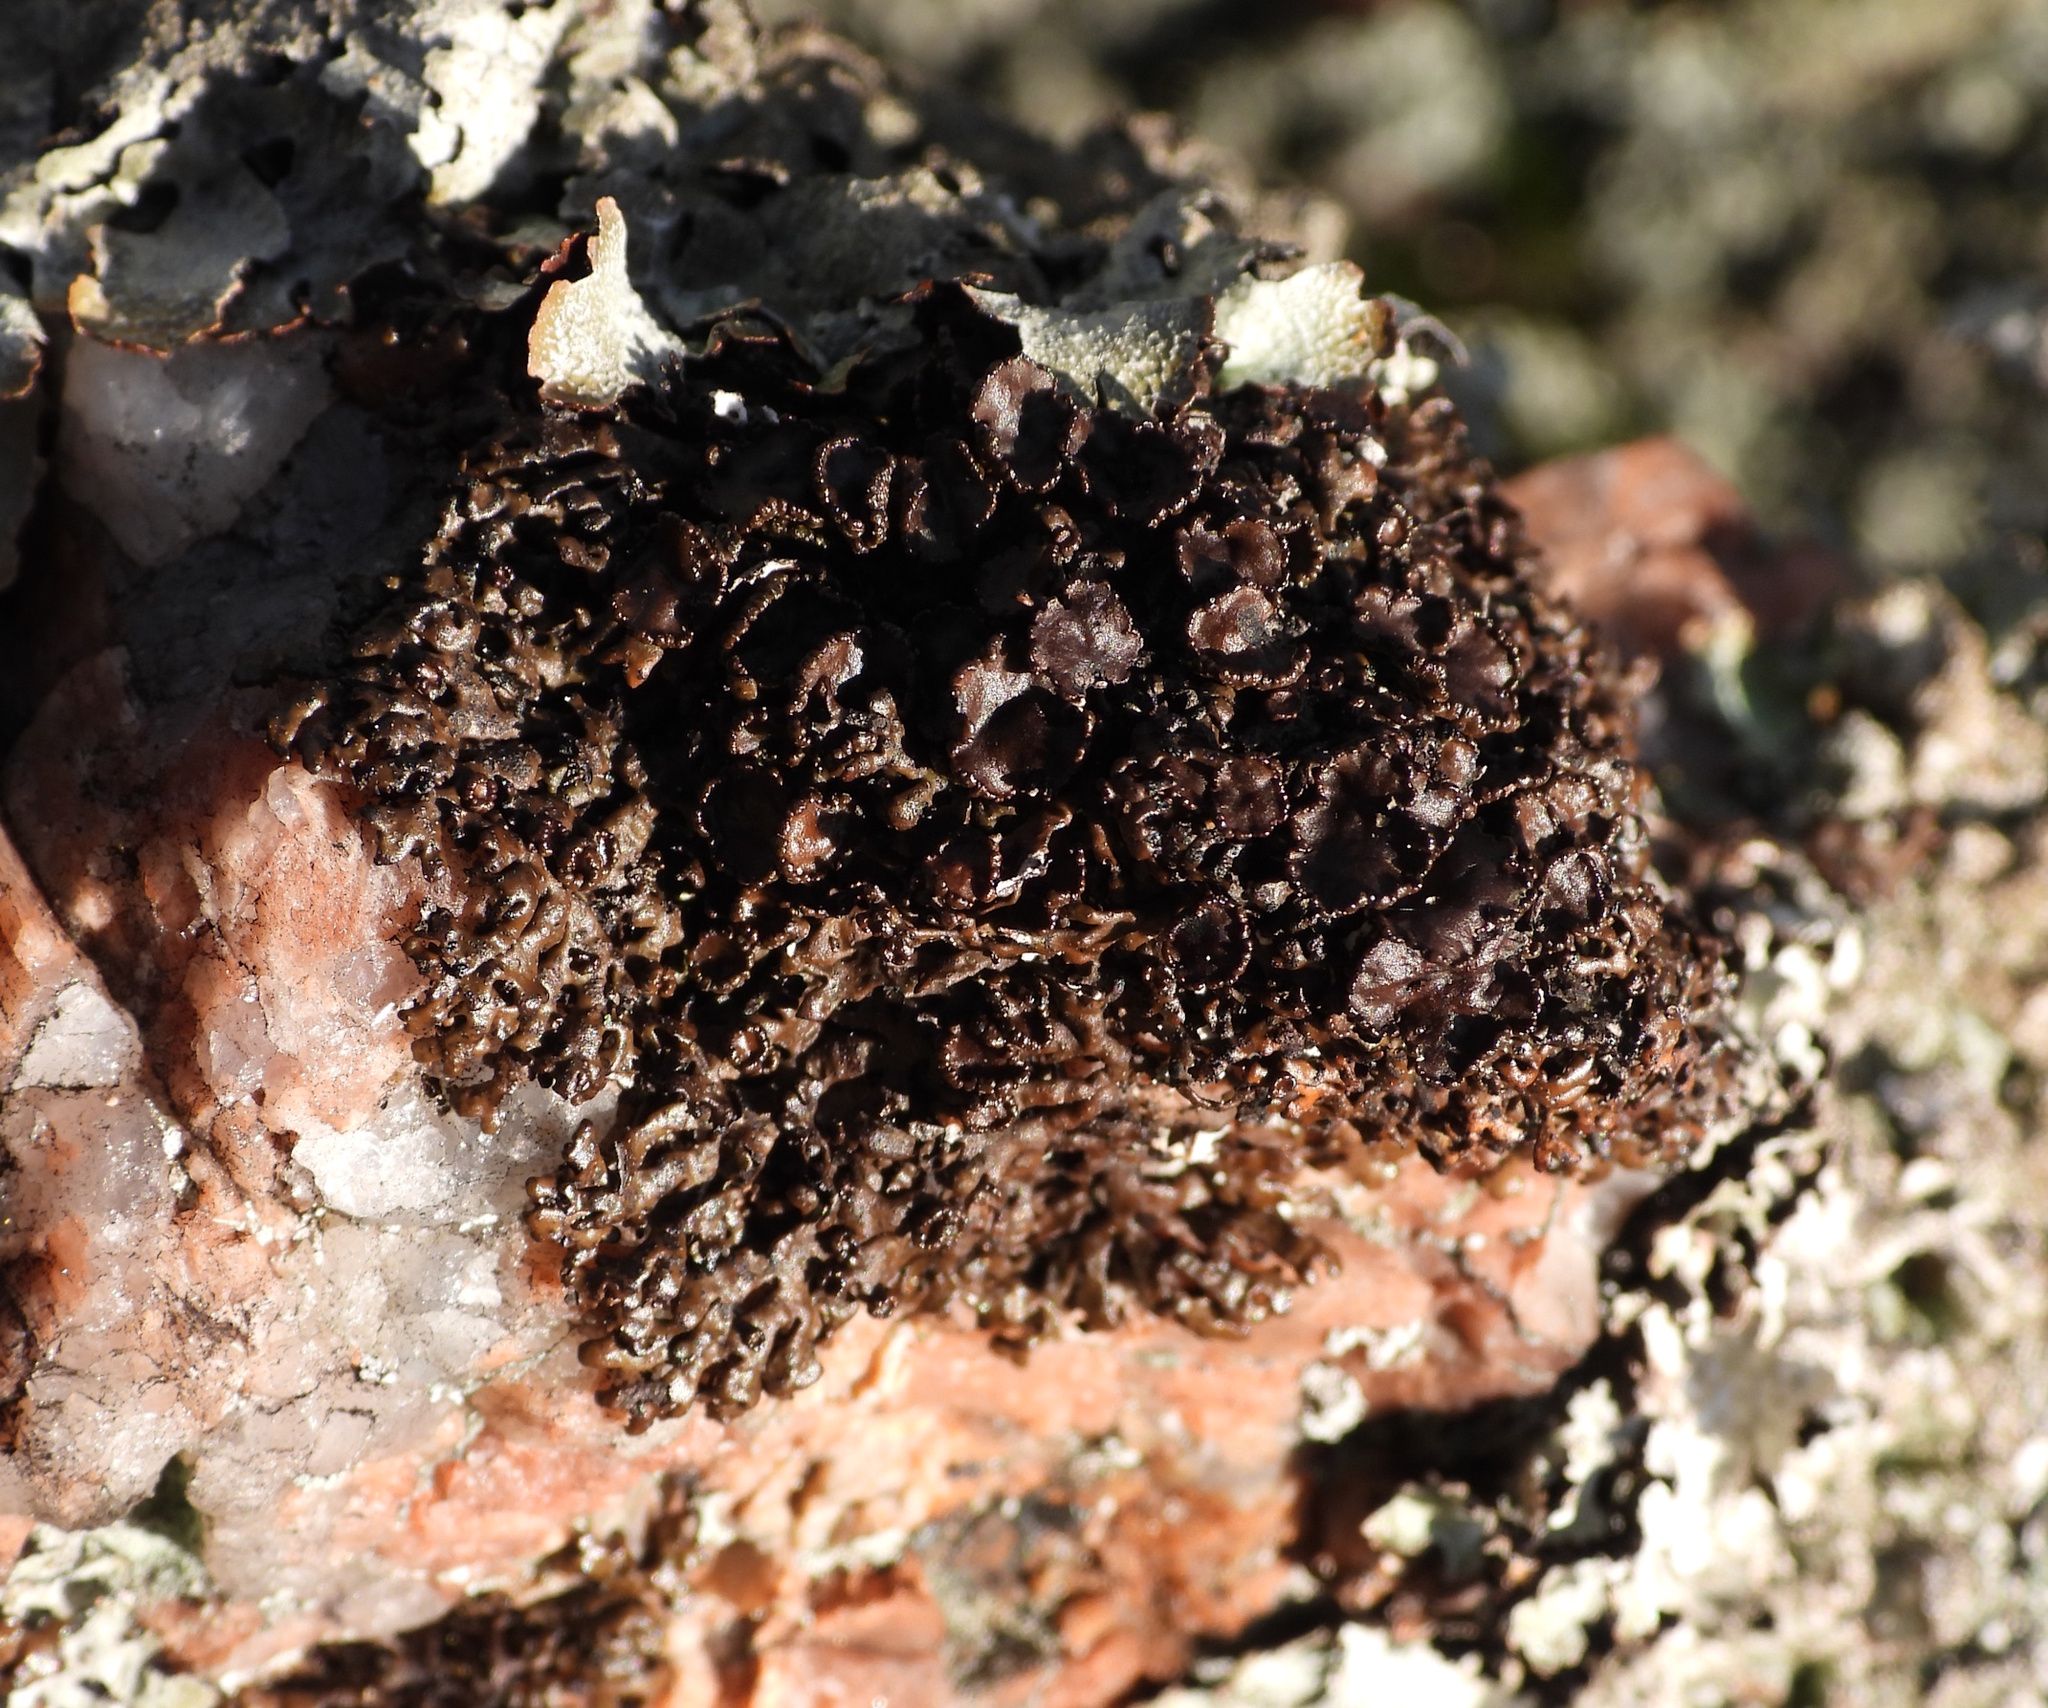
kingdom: Fungi
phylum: Ascomycota
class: Lecanoromycetes
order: Lecanorales
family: Parmeliaceae
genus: Melanelia
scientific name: Melanelia stygia
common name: Alpine camouflage lichen
